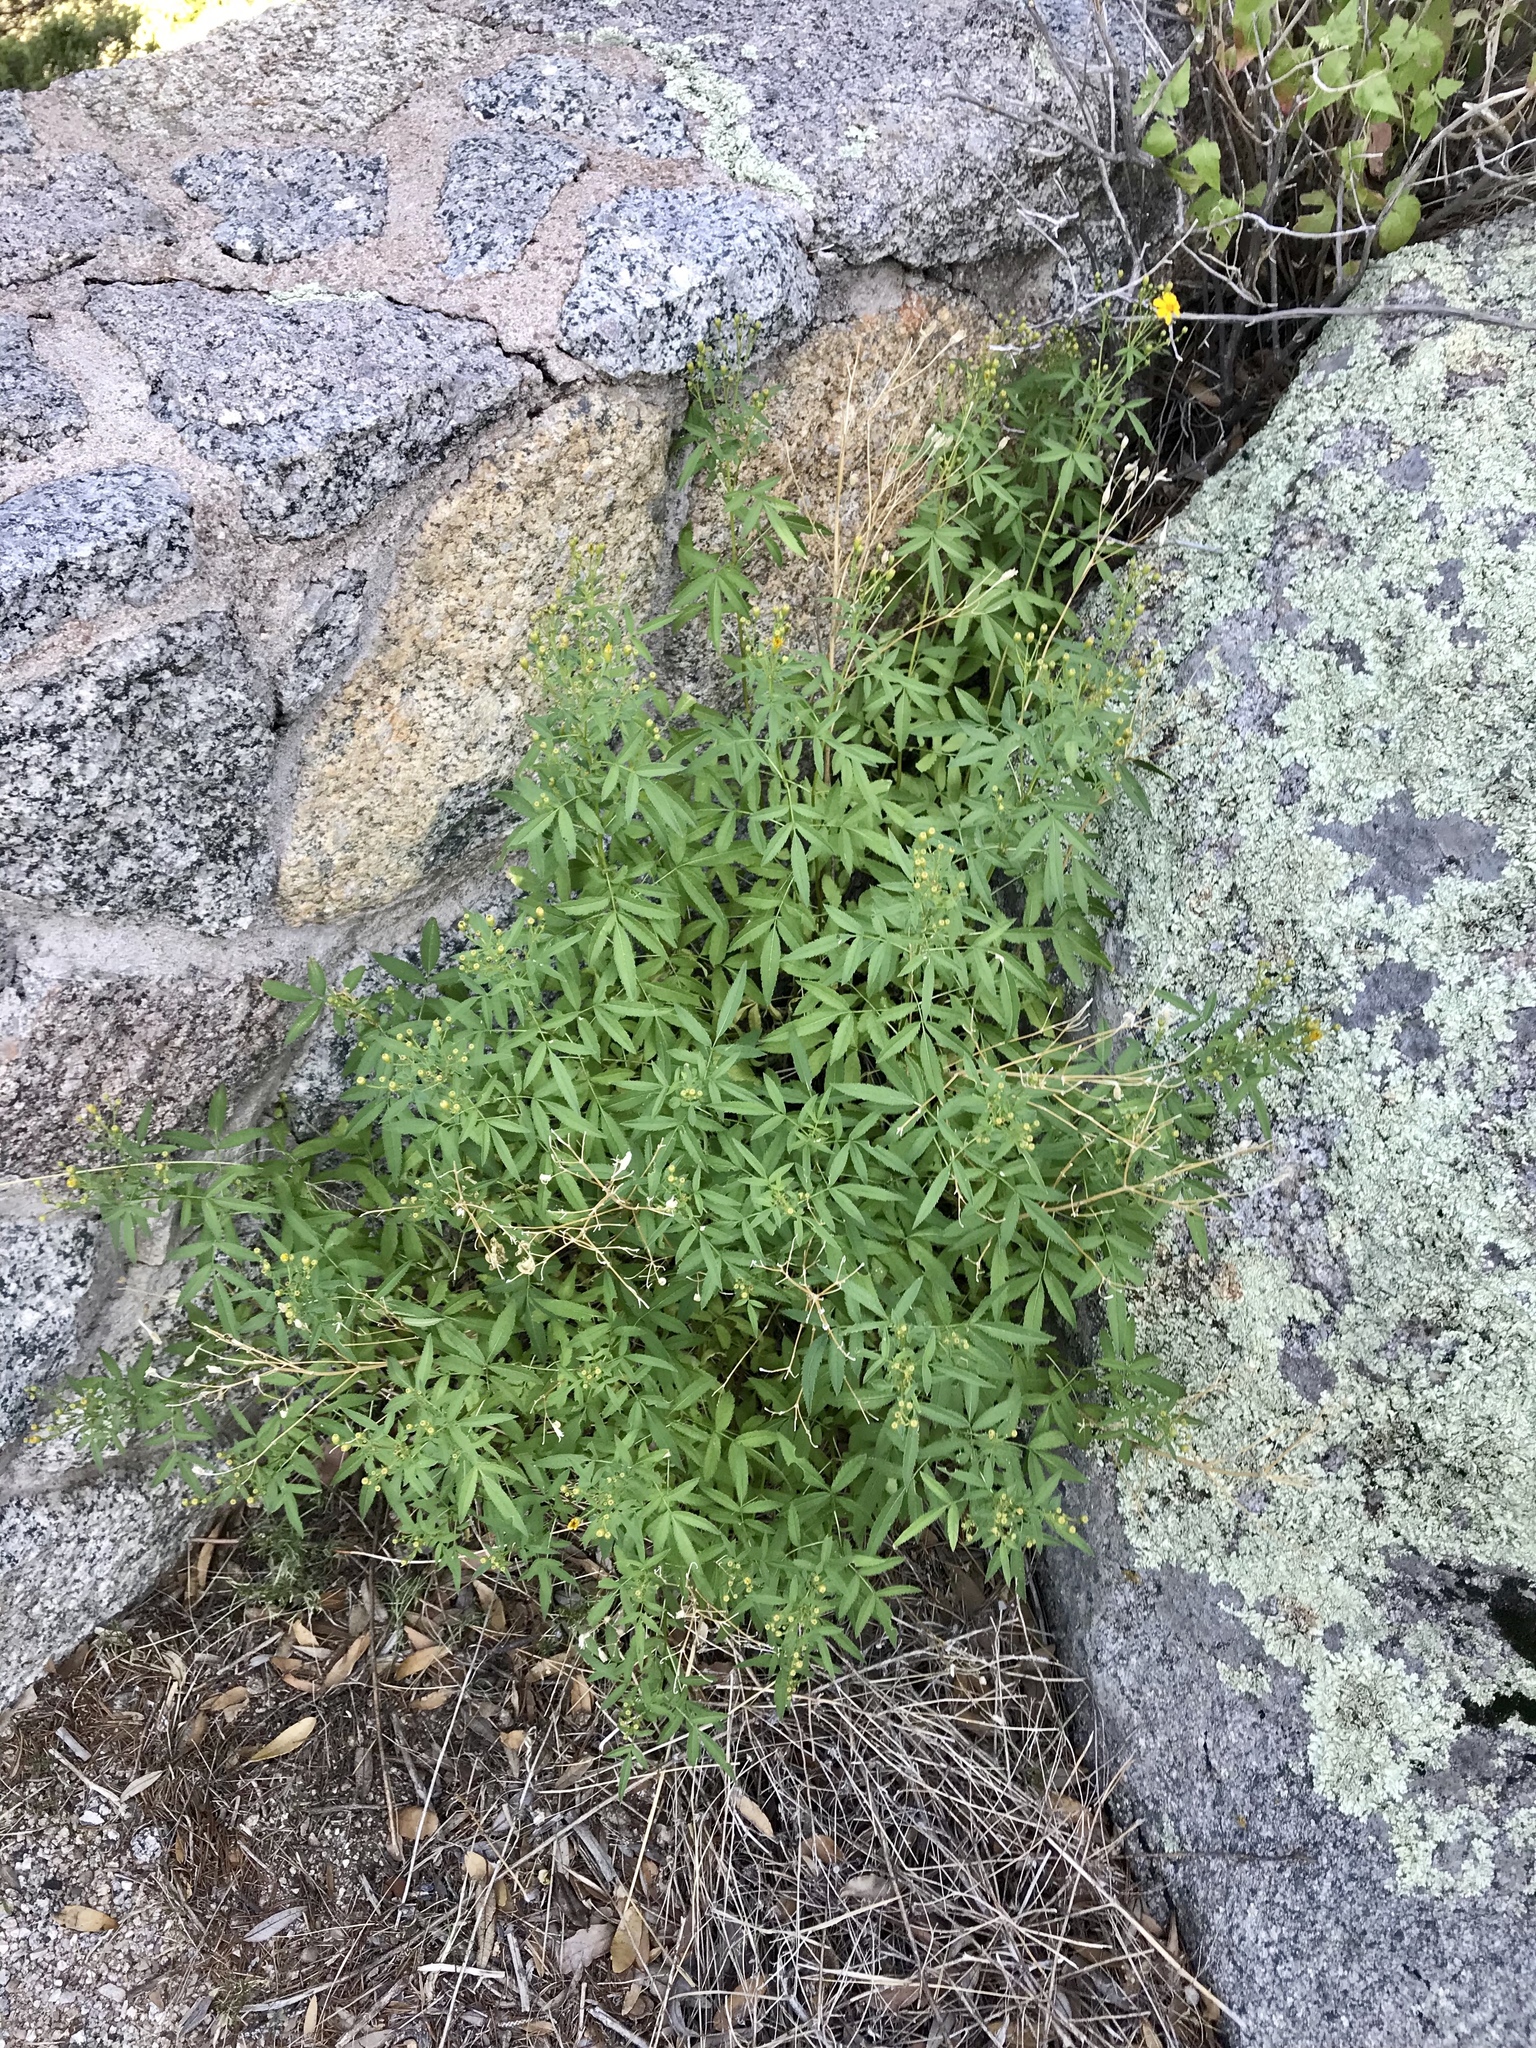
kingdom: Plantae
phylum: Tracheophyta
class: Magnoliopsida
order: Asterales
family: Asteraceae
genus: Tagetes
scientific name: Tagetes lemmonii
